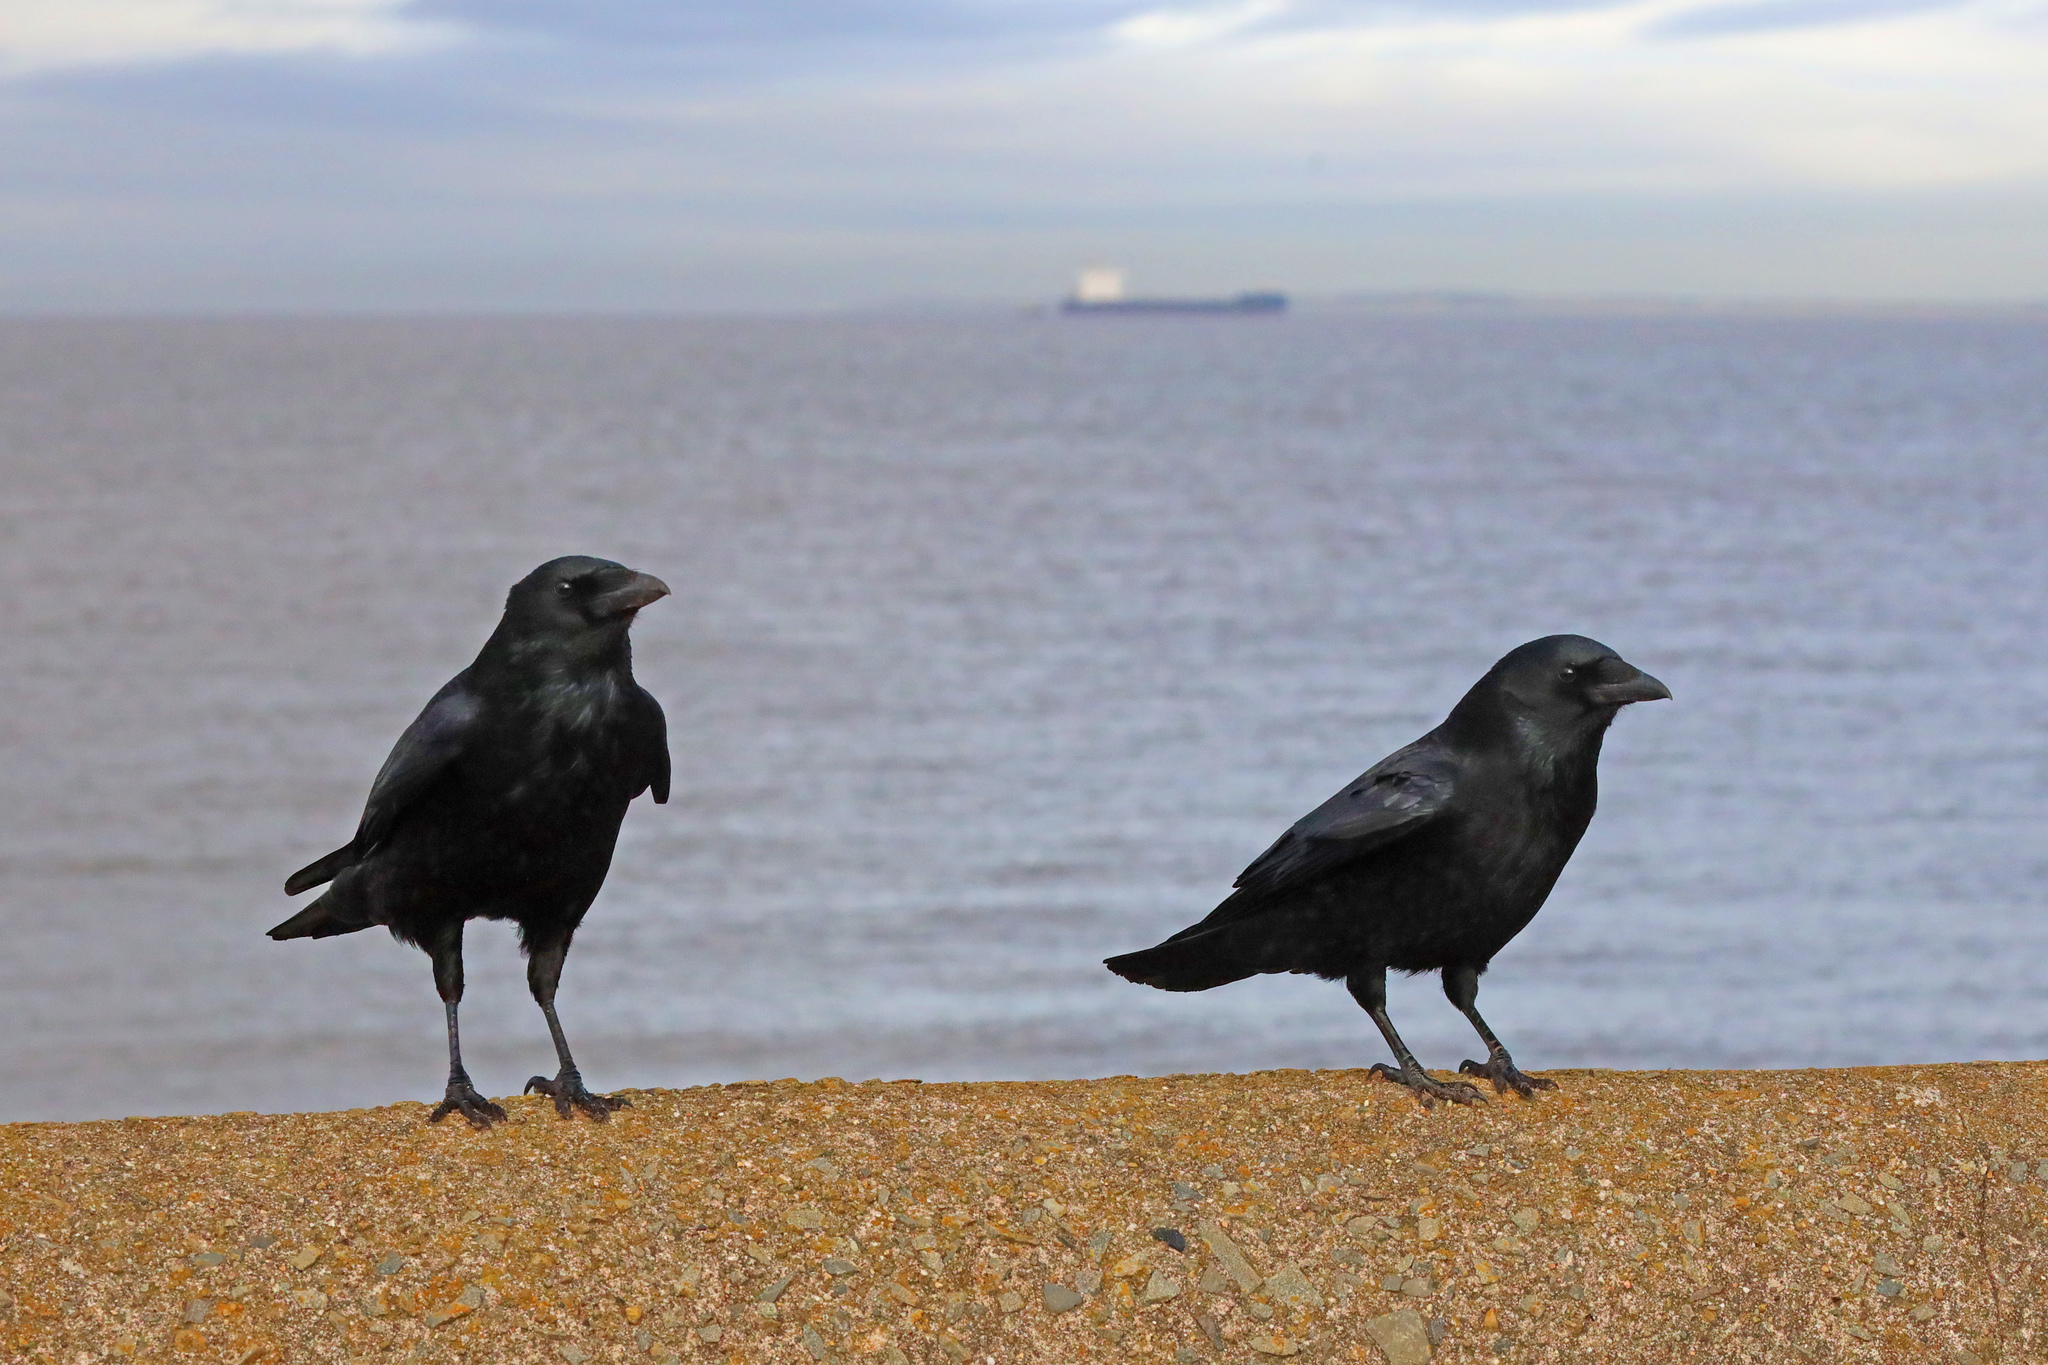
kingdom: Animalia
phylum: Chordata
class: Aves
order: Passeriformes
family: Corvidae
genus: Corvus
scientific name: Corvus corone
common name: Carrion crow
